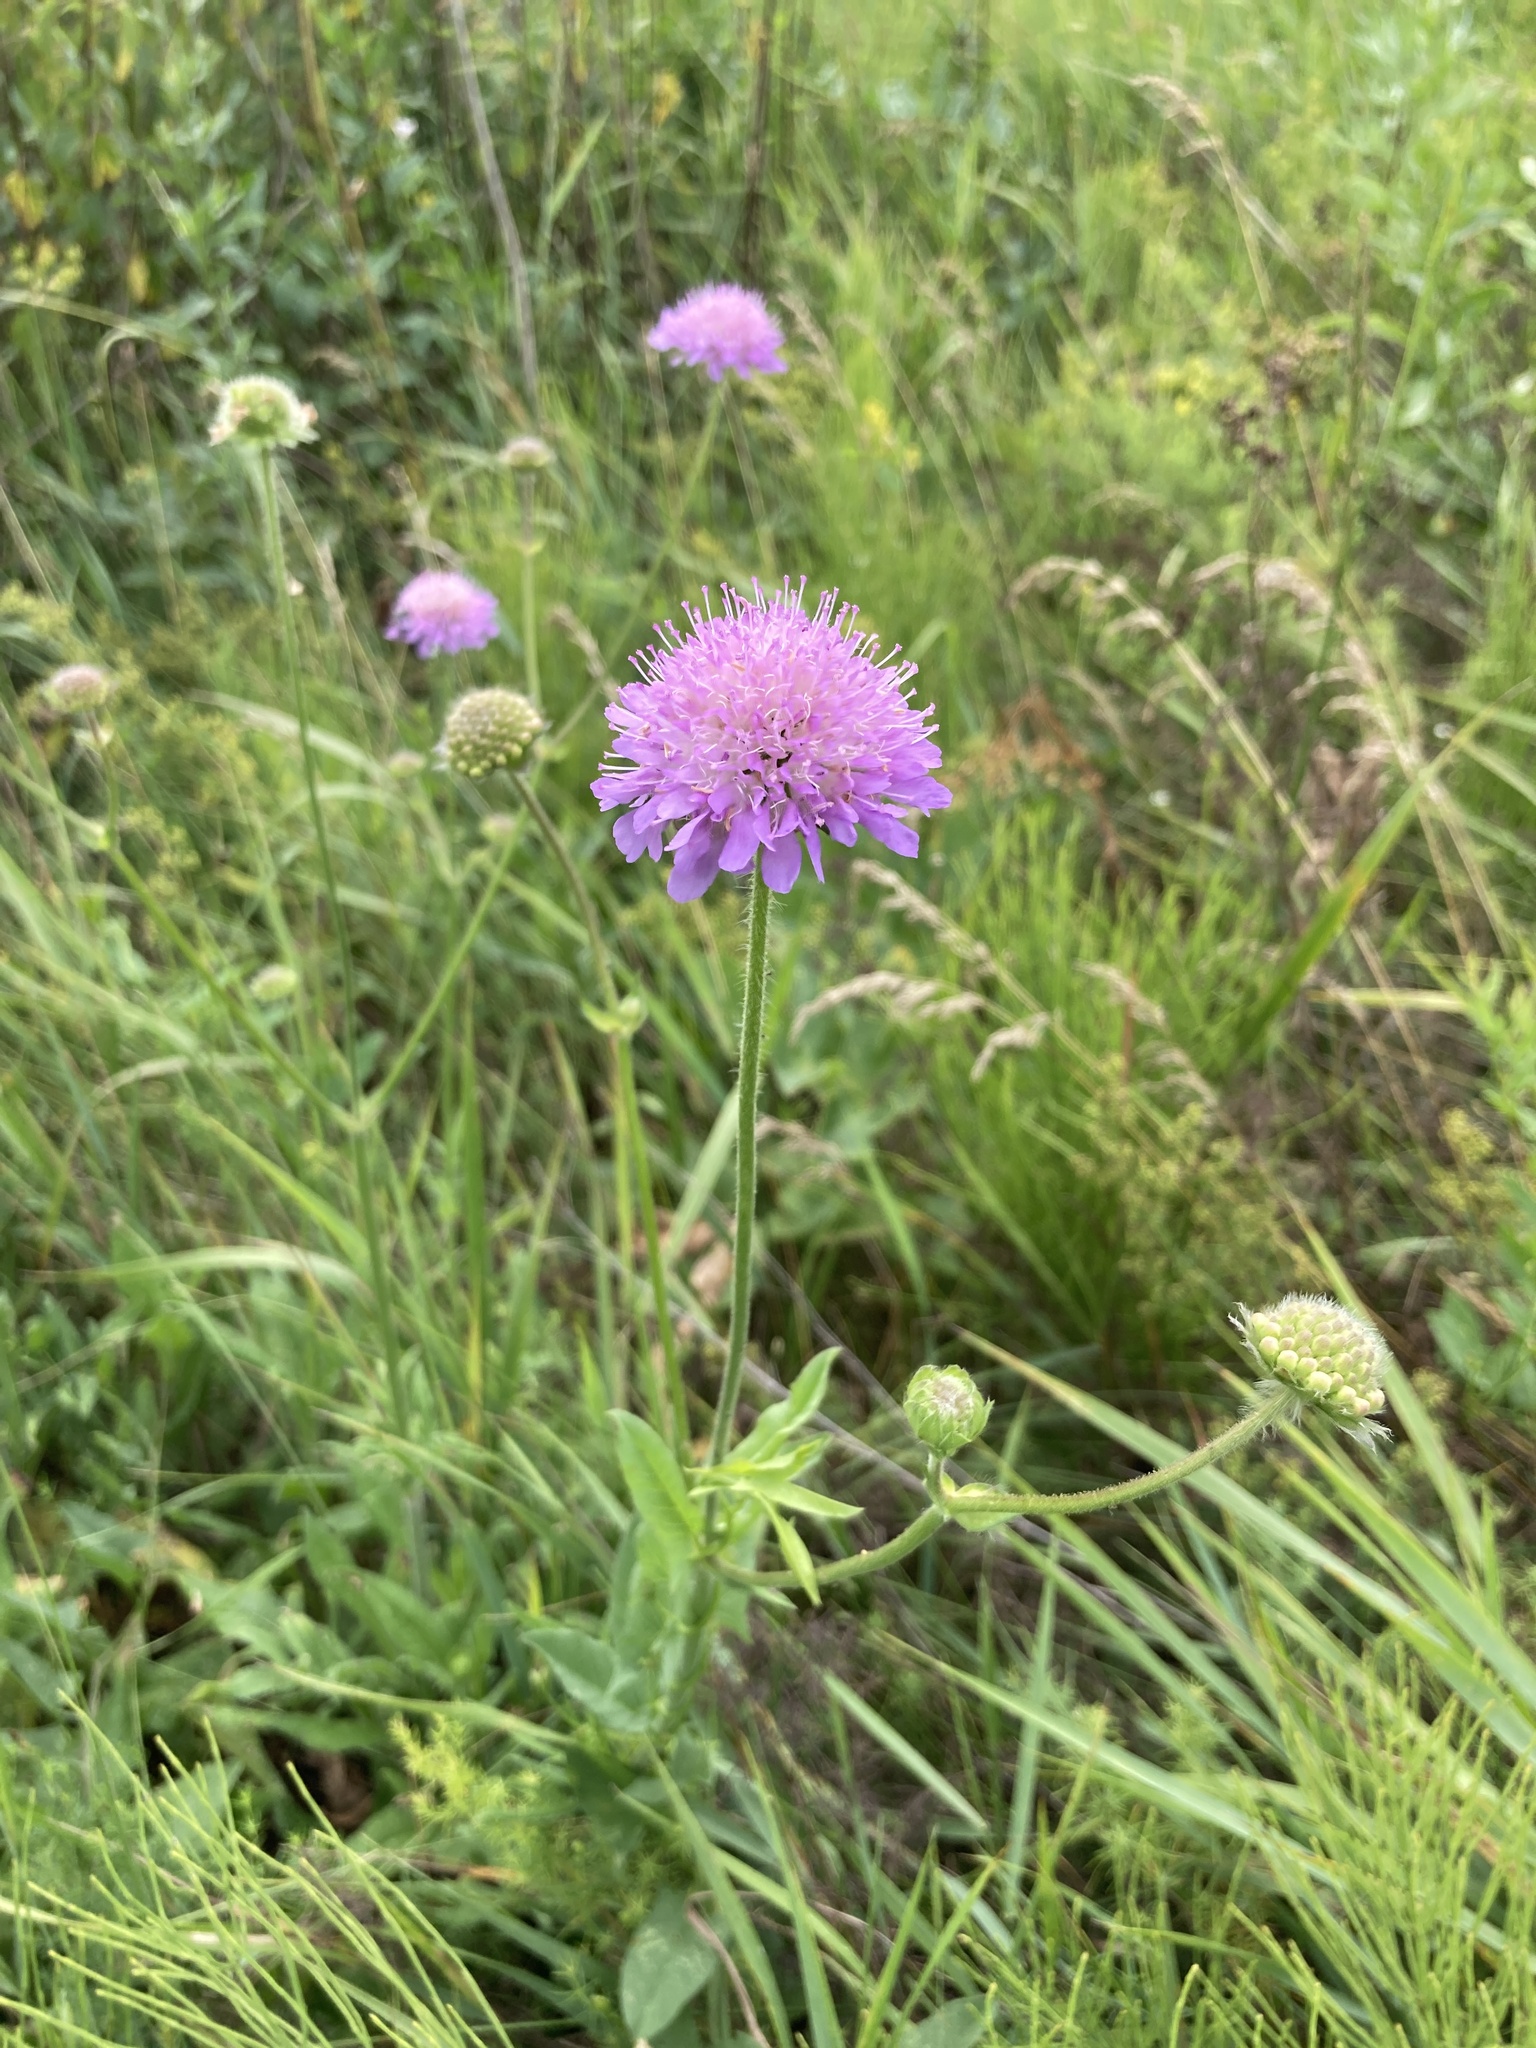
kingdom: Plantae
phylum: Tracheophyta
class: Magnoliopsida
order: Dipsacales
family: Caprifoliaceae
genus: Knautia
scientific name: Knautia arvensis
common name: Field scabiosa
